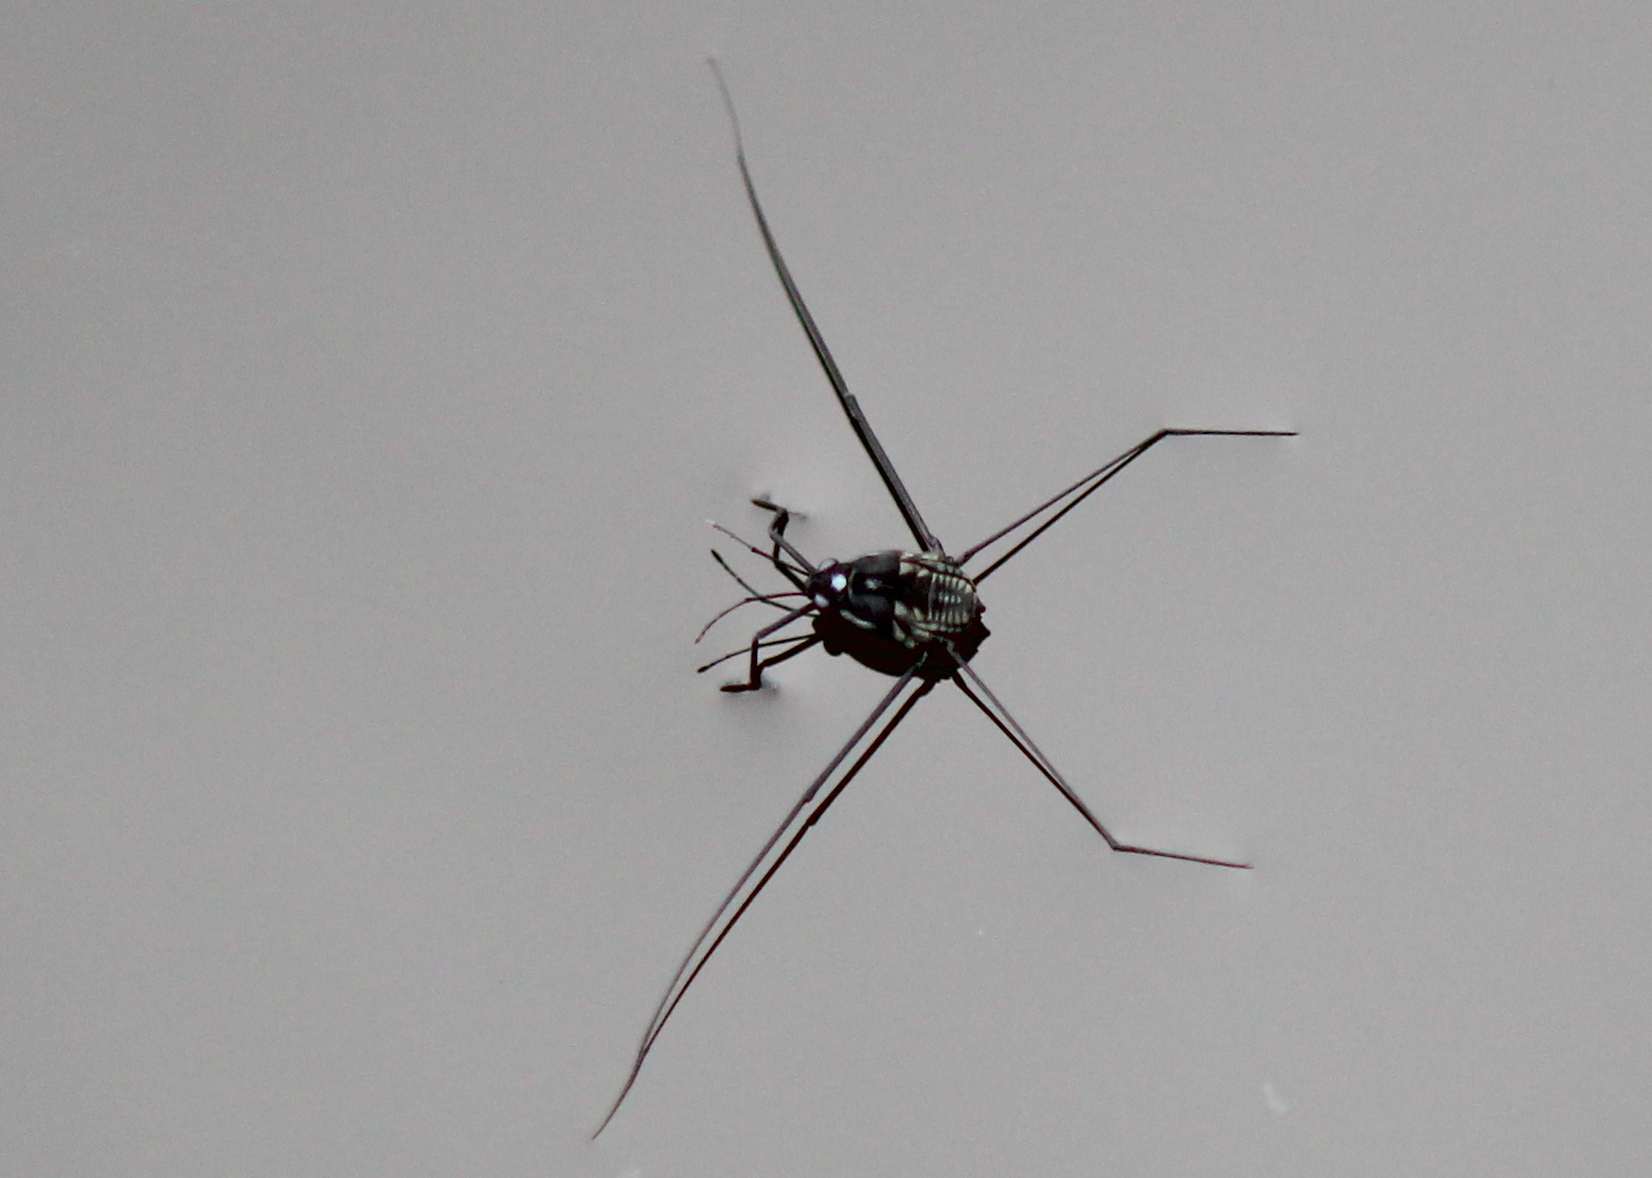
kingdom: Animalia
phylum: Arthropoda
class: Insecta
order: Hemiptera
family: Gerridae
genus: Metrobates
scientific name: Metrobates hesperius
